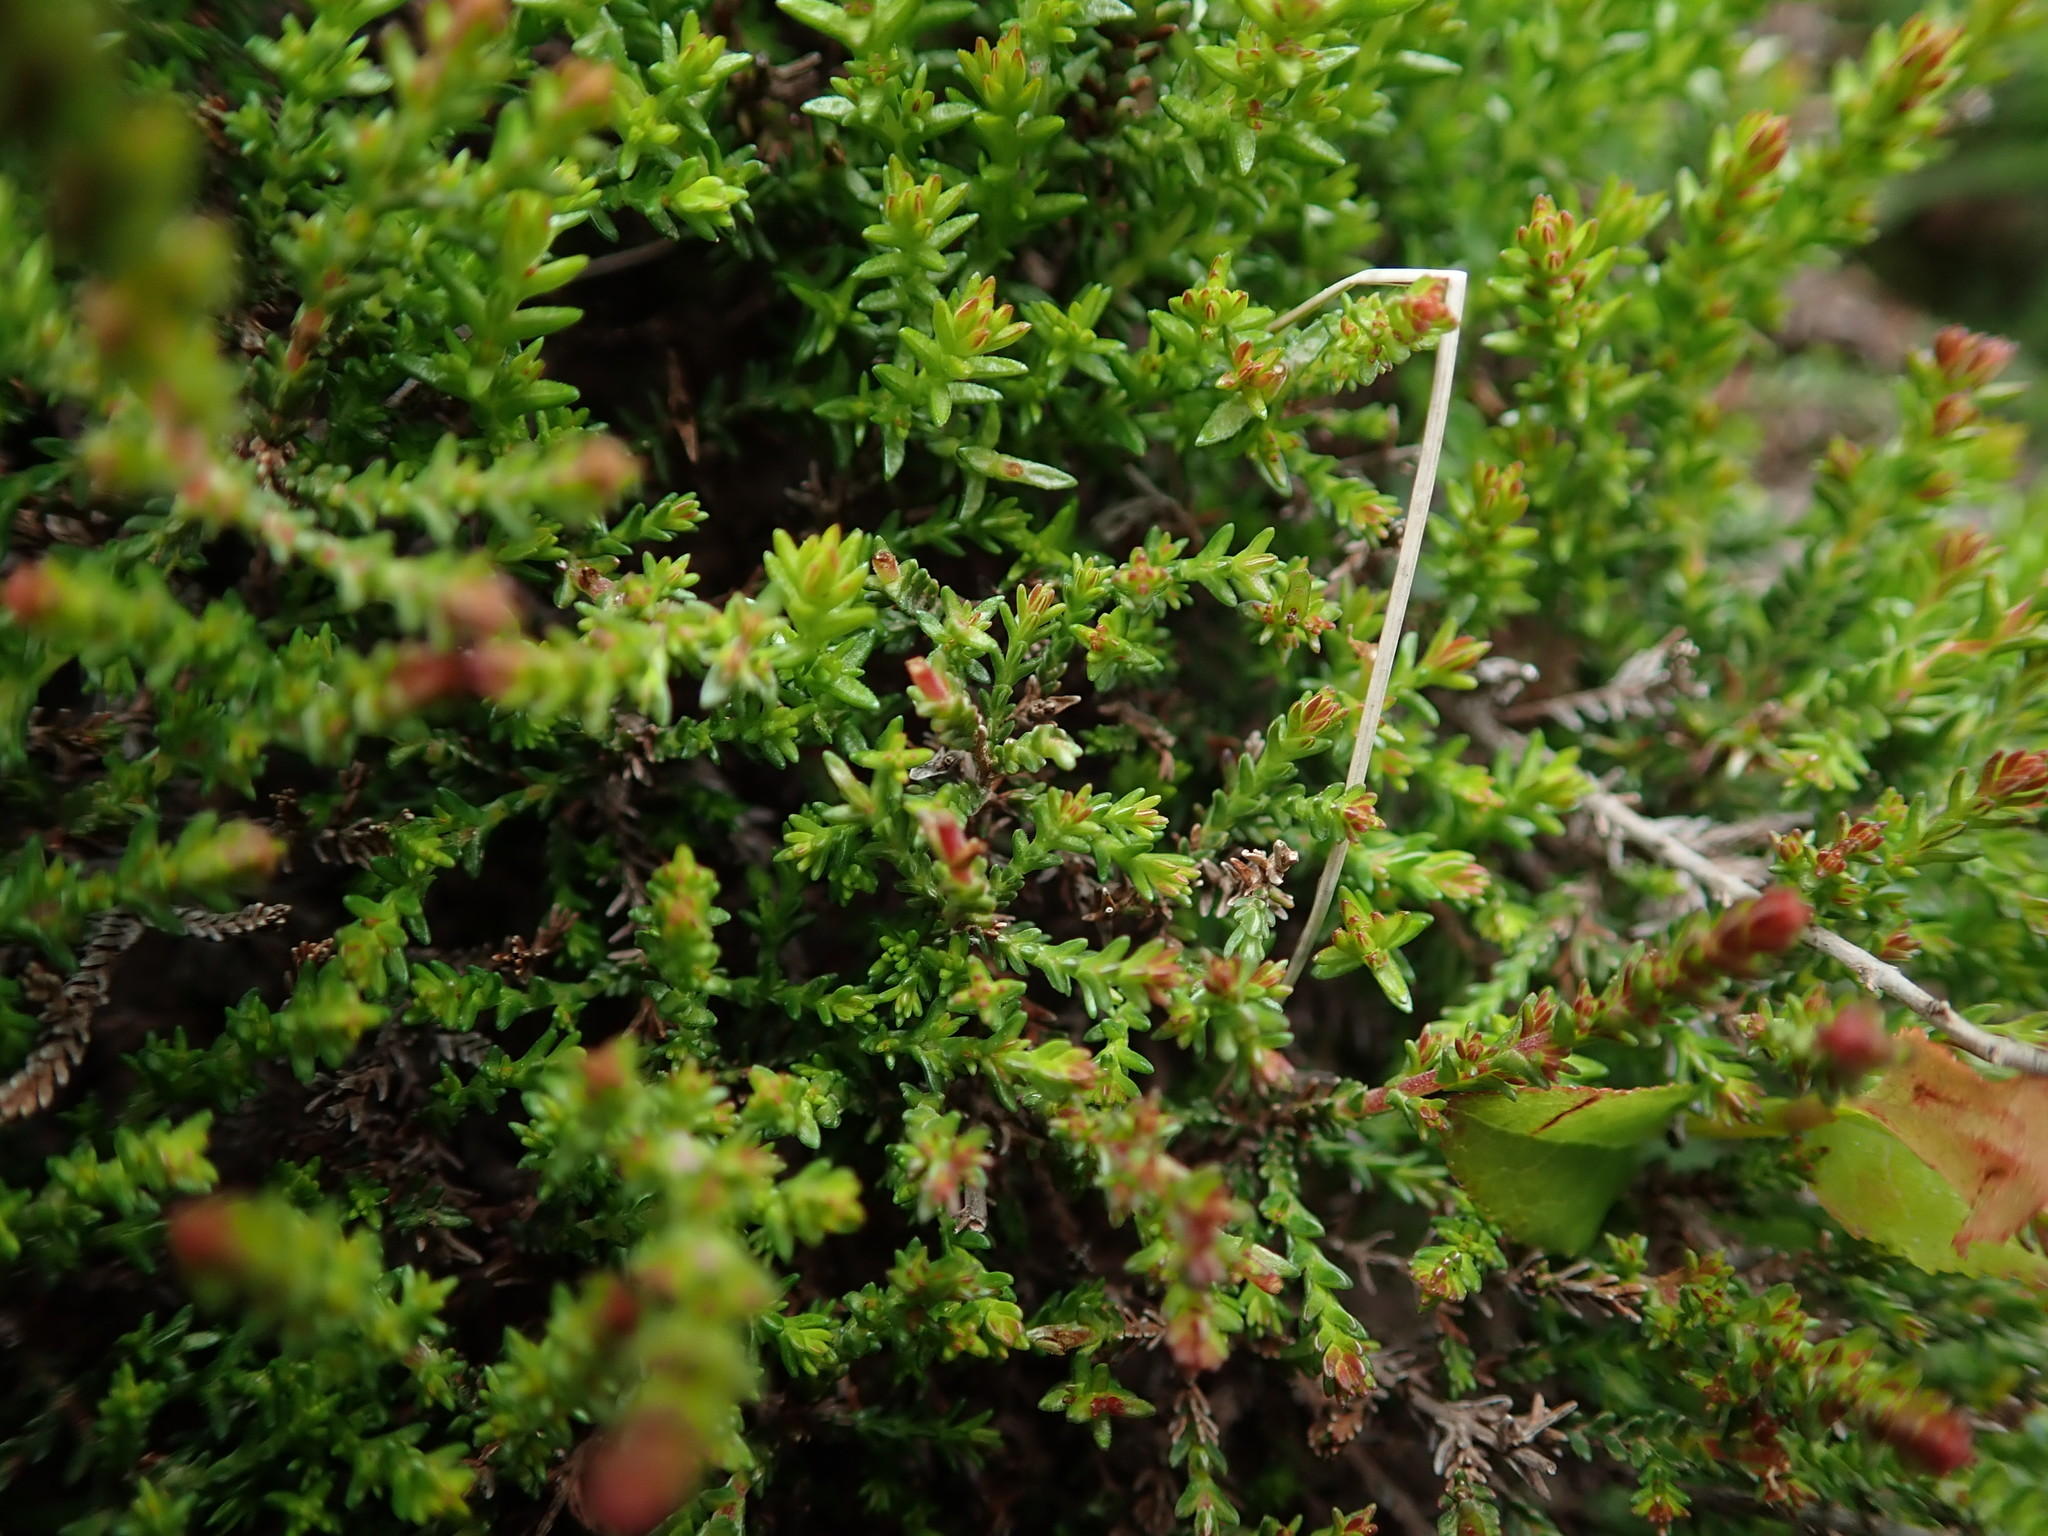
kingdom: Plantae
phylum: Tracheophyta
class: Magnoliopsida
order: Ericales
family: Ericaceae
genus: Empetrum
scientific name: Empetrum nigrum
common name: Black crowberry
